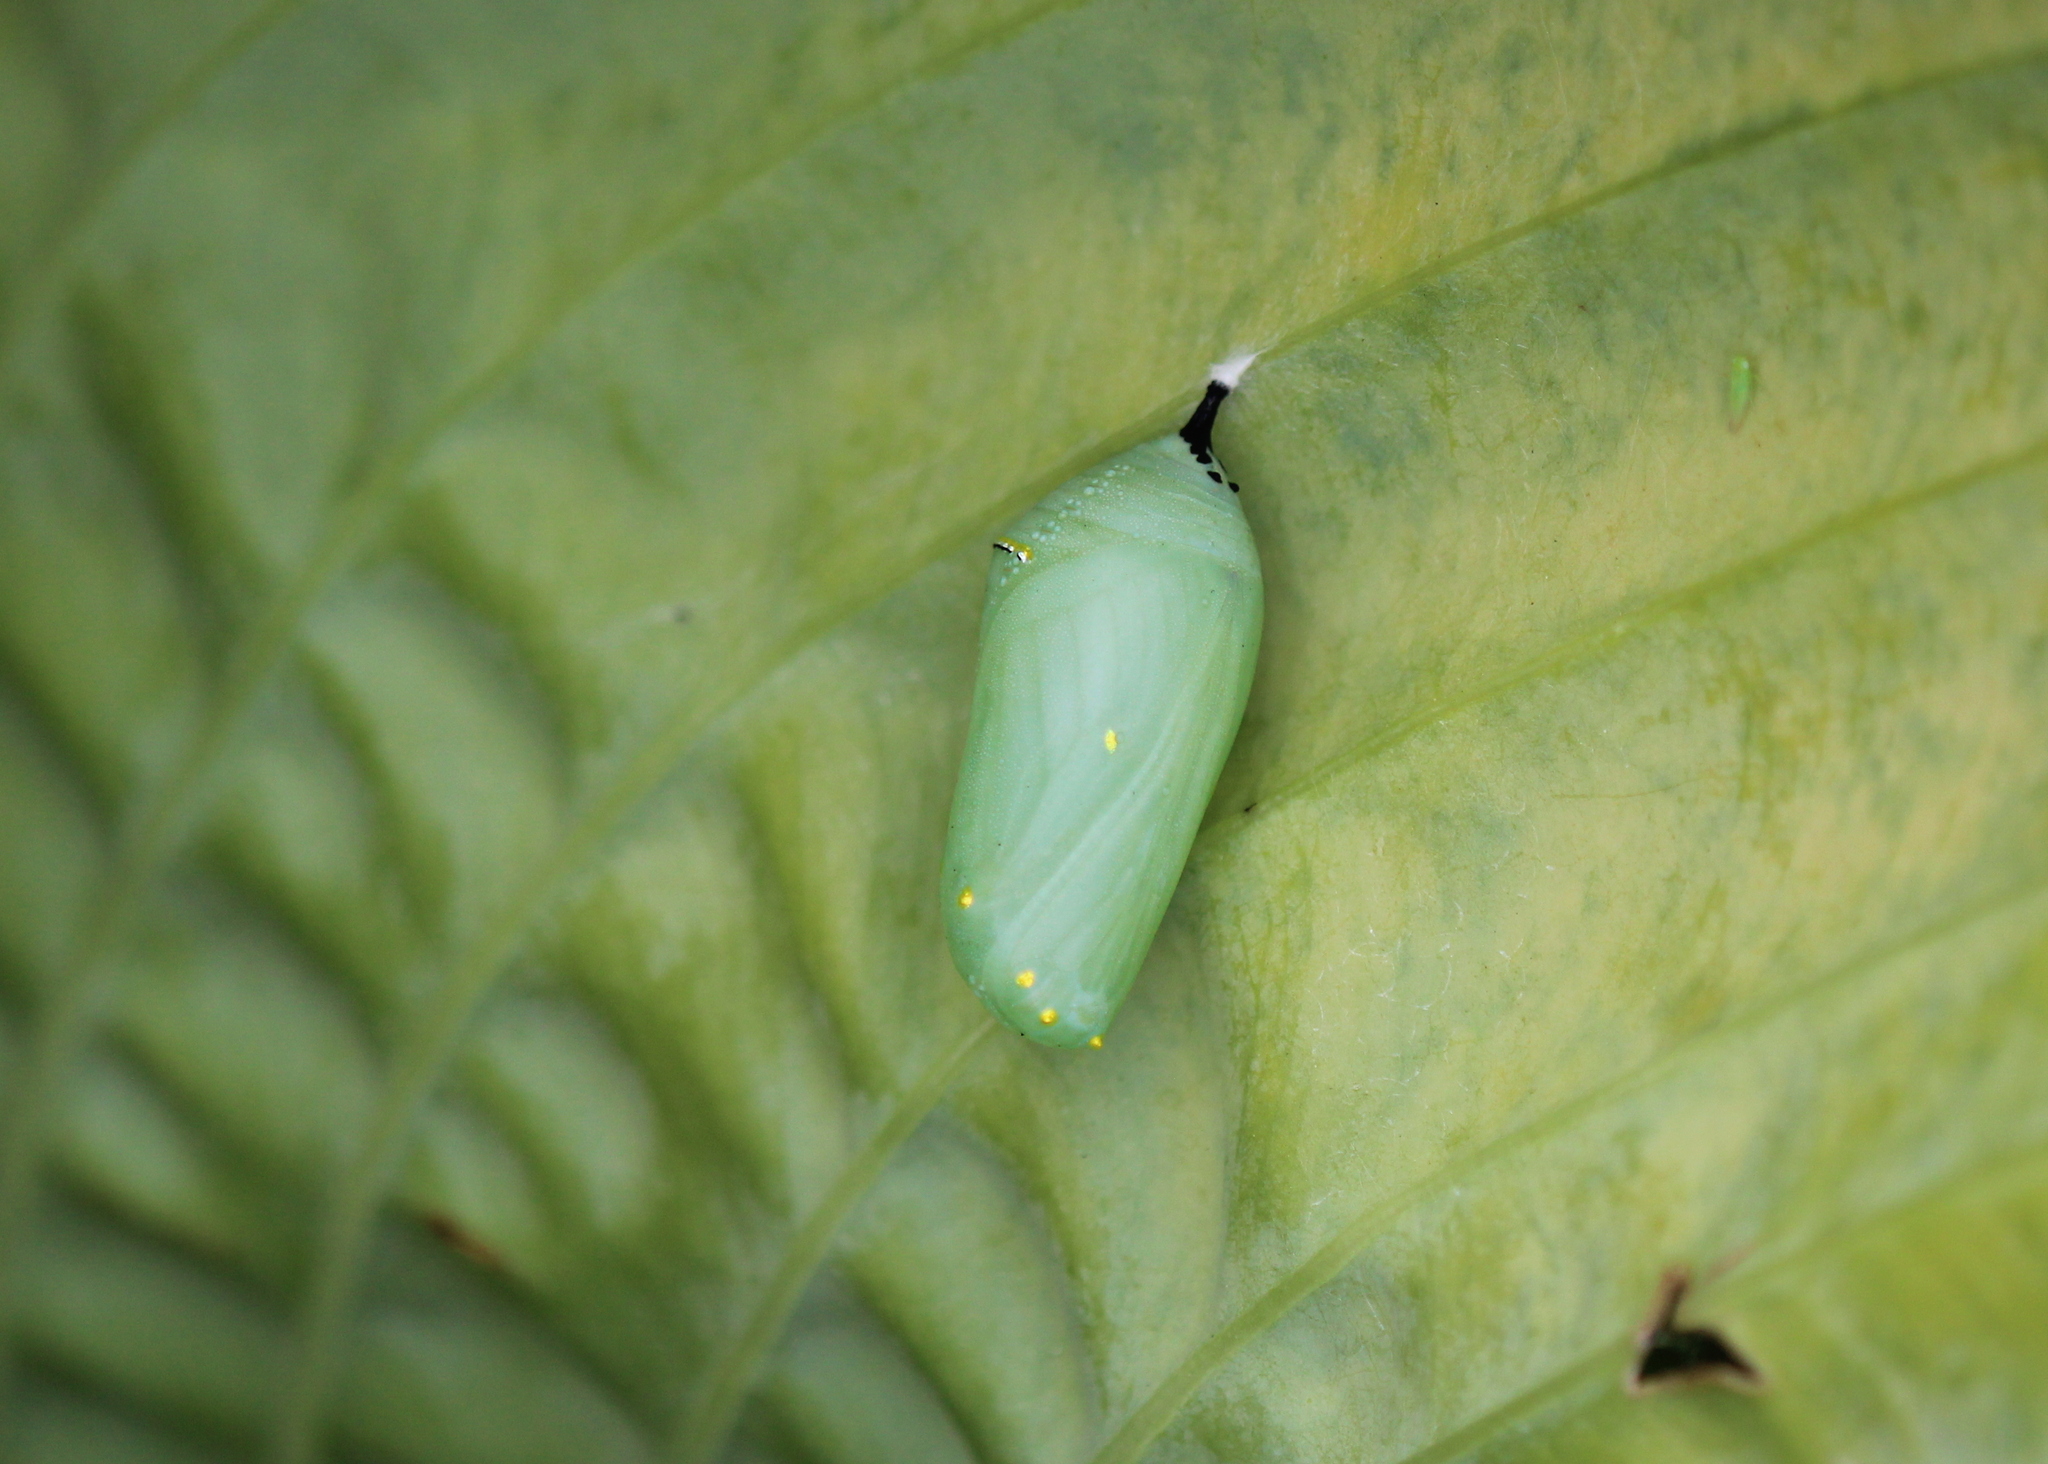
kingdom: Animalia
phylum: Arthropoda
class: Insecta
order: Lepidoptera
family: Nymphalidae
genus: Danaus
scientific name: Danaus plexippus
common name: Monarch
